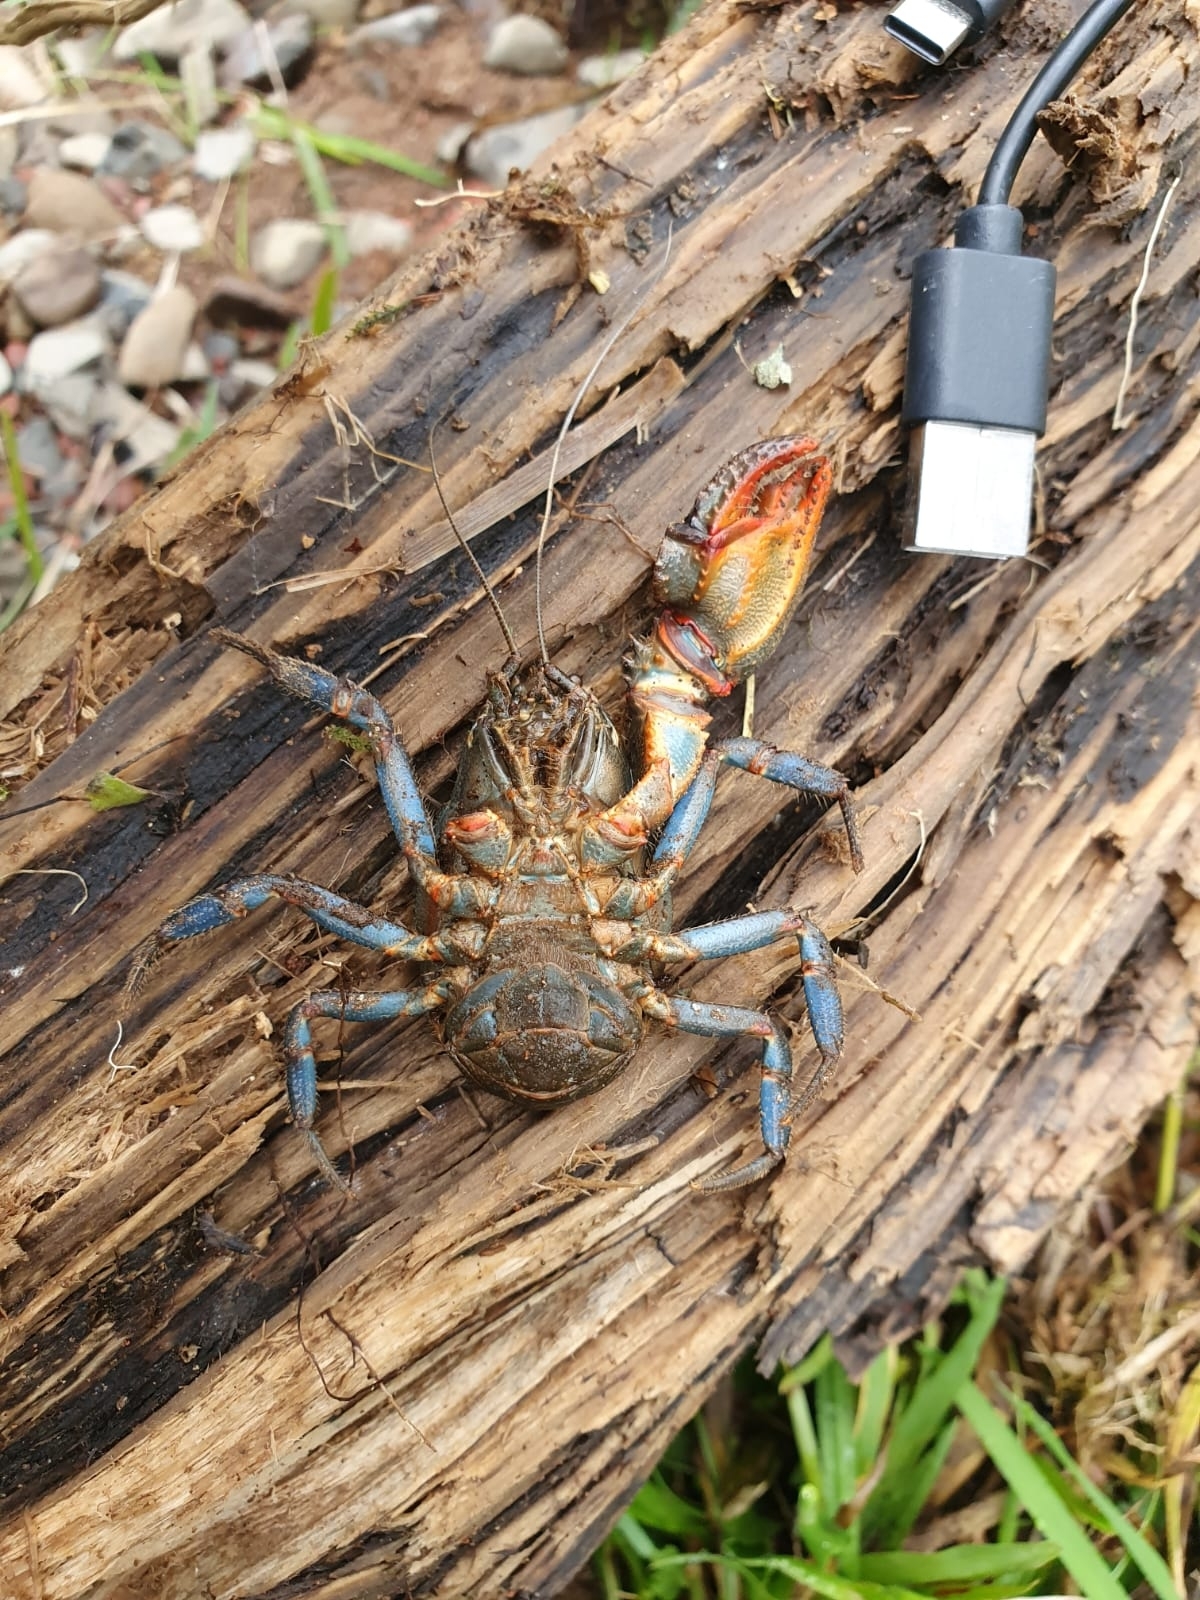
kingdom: Animalia
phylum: Arthropoda
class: Malacostraca
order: Decapoda
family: Aeglidae
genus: Aegla
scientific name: Aegla jarai
